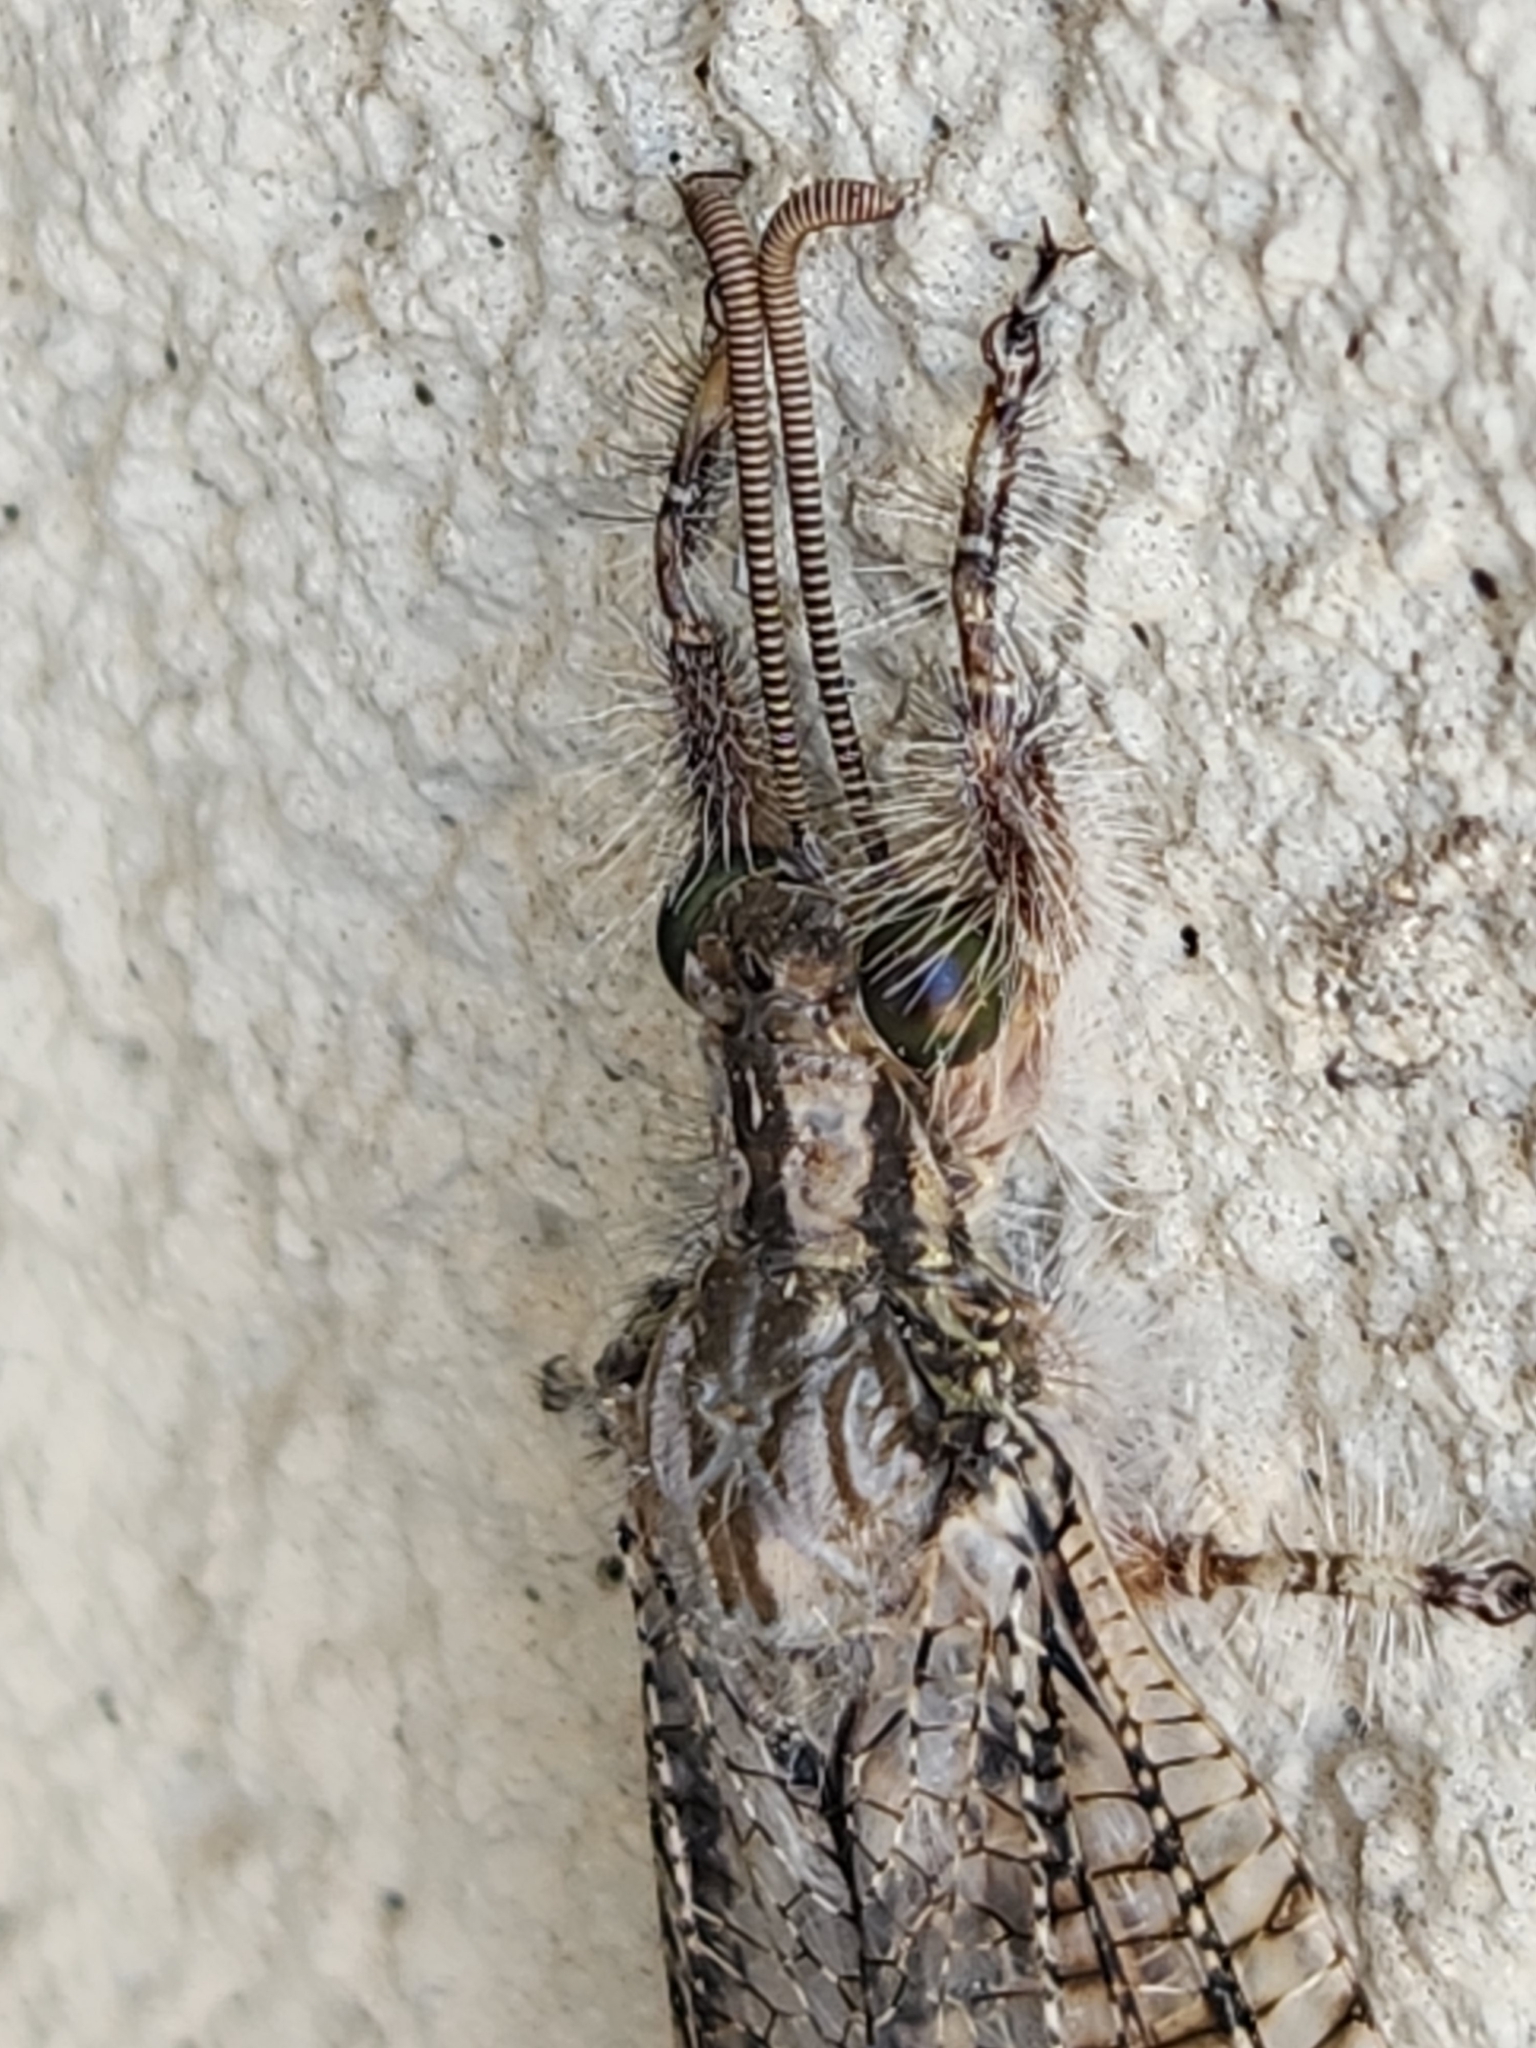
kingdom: Animalia
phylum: Arthropoda
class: Insecta
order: Neuroptera
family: Myrmeleontidae
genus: Vella
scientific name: Vella fallax
